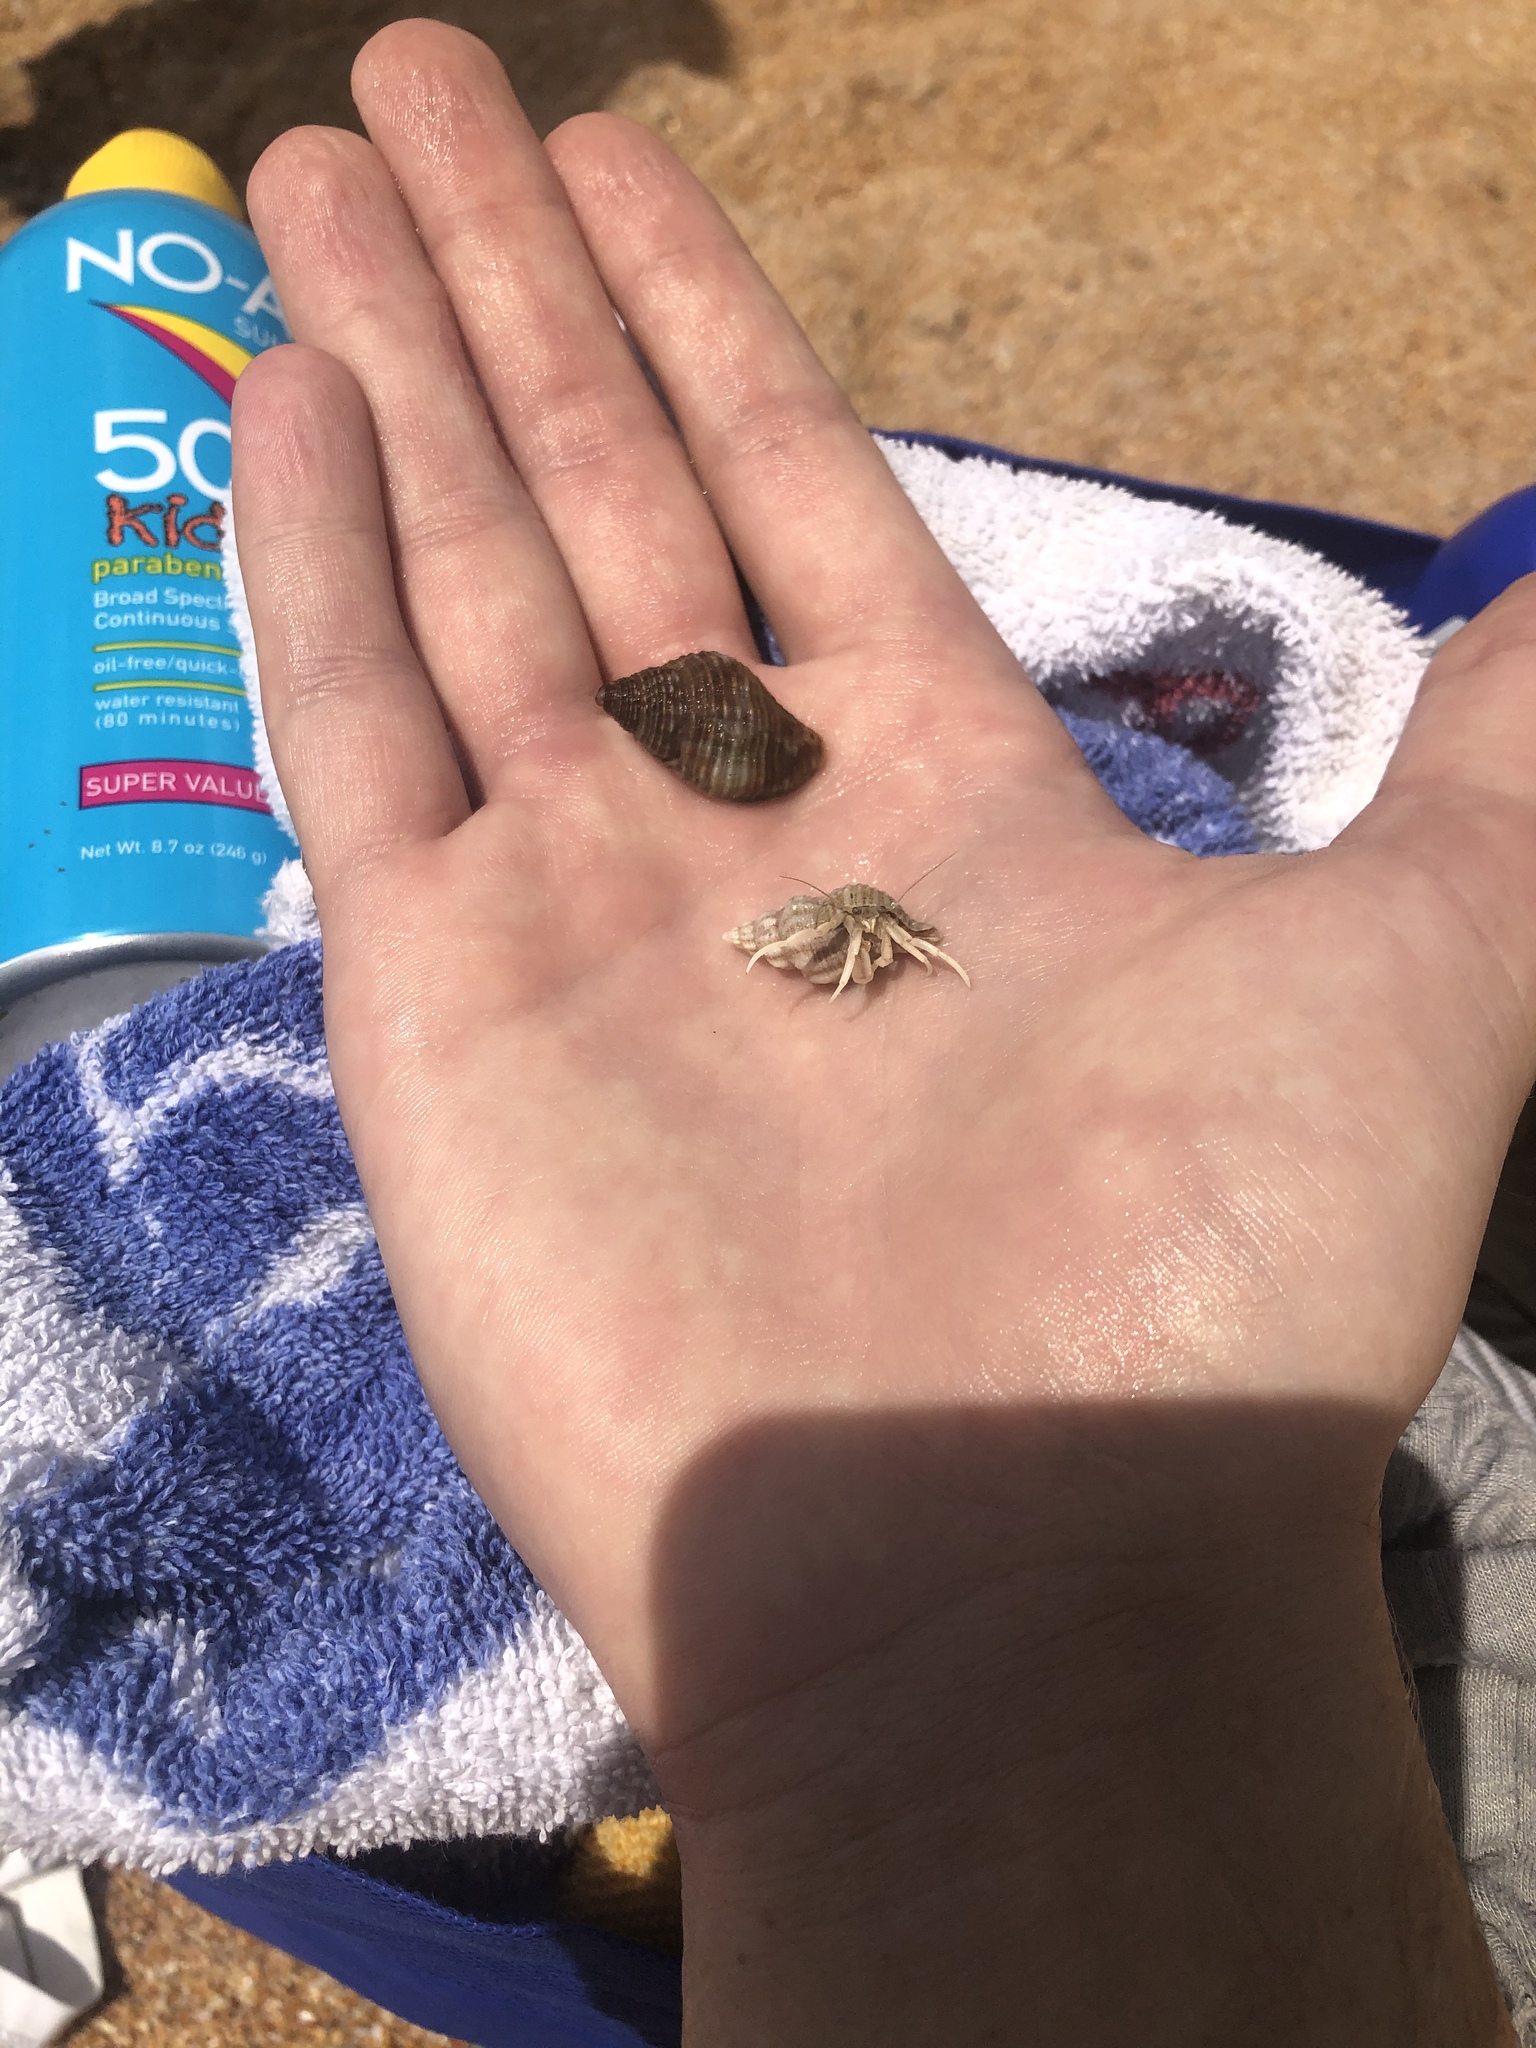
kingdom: Animalia
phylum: Arthropoda
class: Malacostraca
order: Decapoda
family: Paguridae
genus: Pagurus
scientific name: Pagurus longicarpus
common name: Long-armed hermit crab
